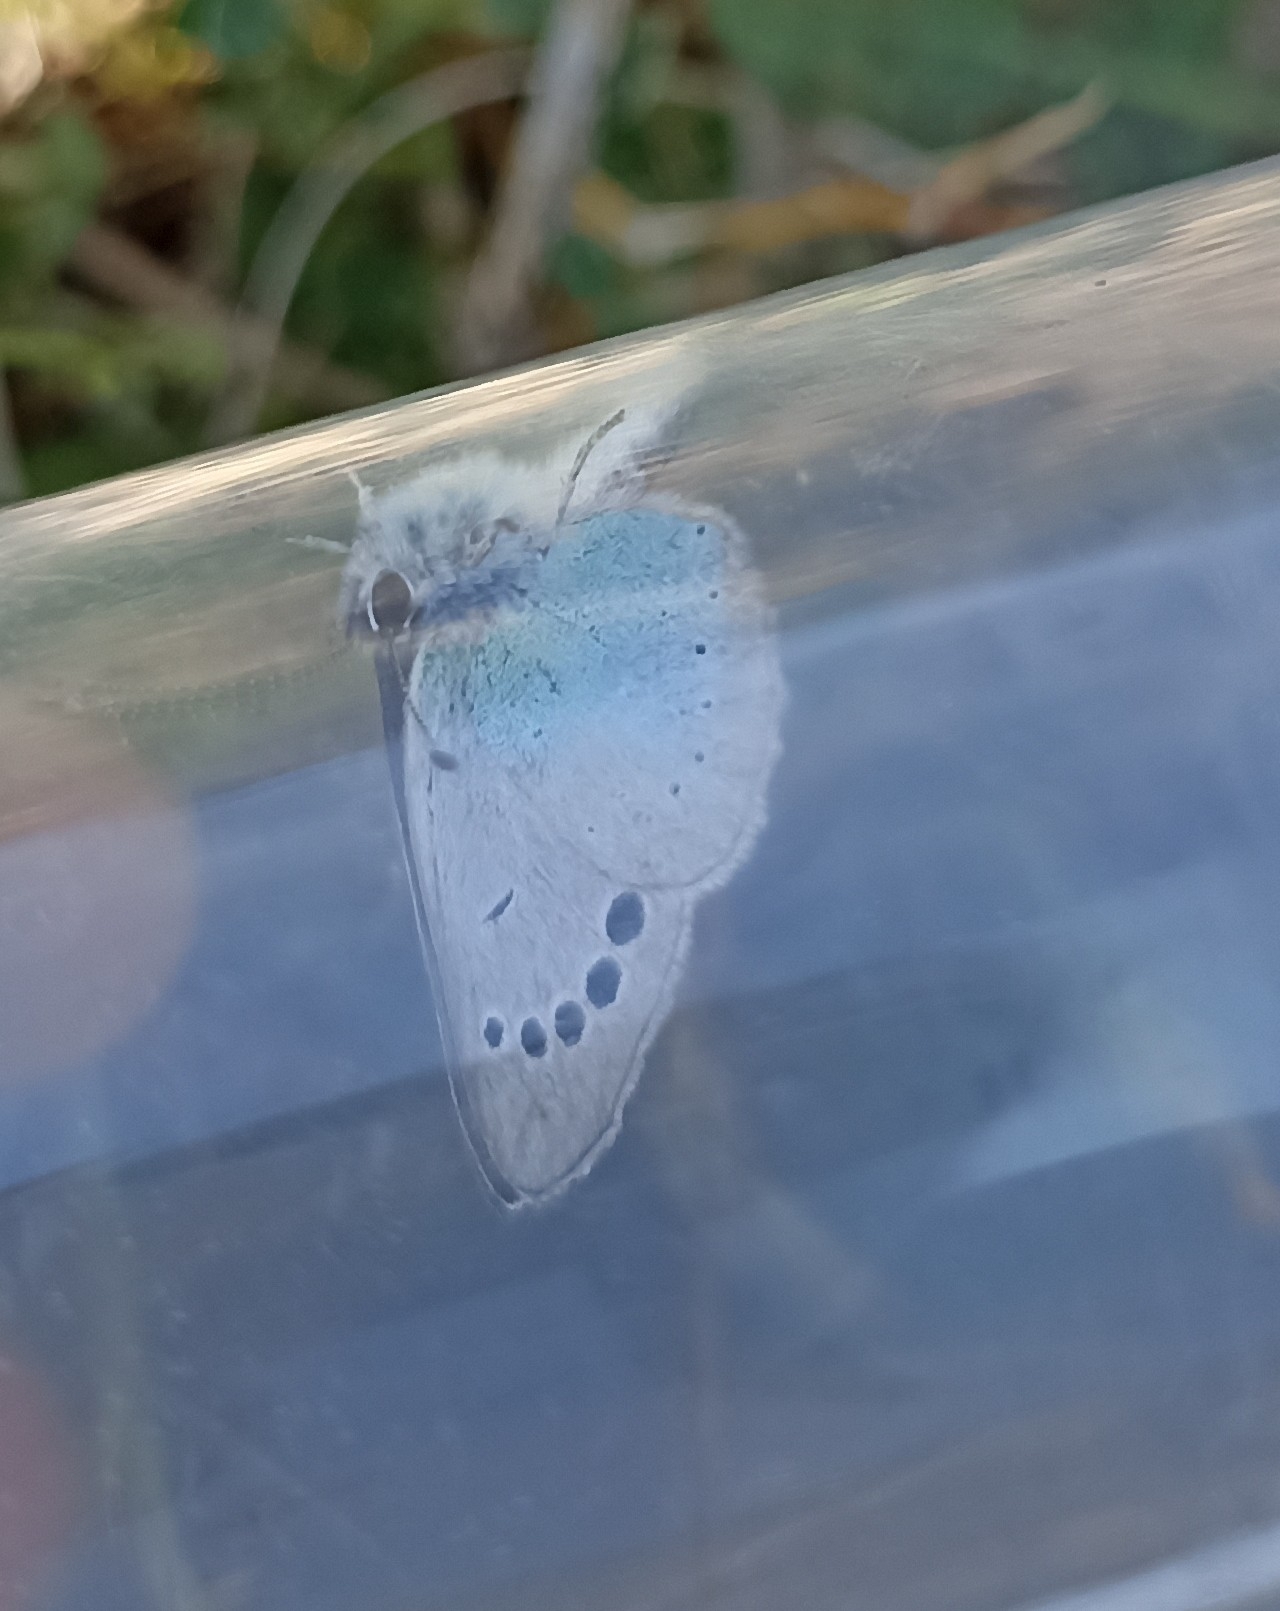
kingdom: Animalia
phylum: Arthropoda
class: Insecta
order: Lepidoptera
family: Lycaenidae
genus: Glaucopsyche
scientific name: Glaucopsyche alexis
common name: Green-underside blue
